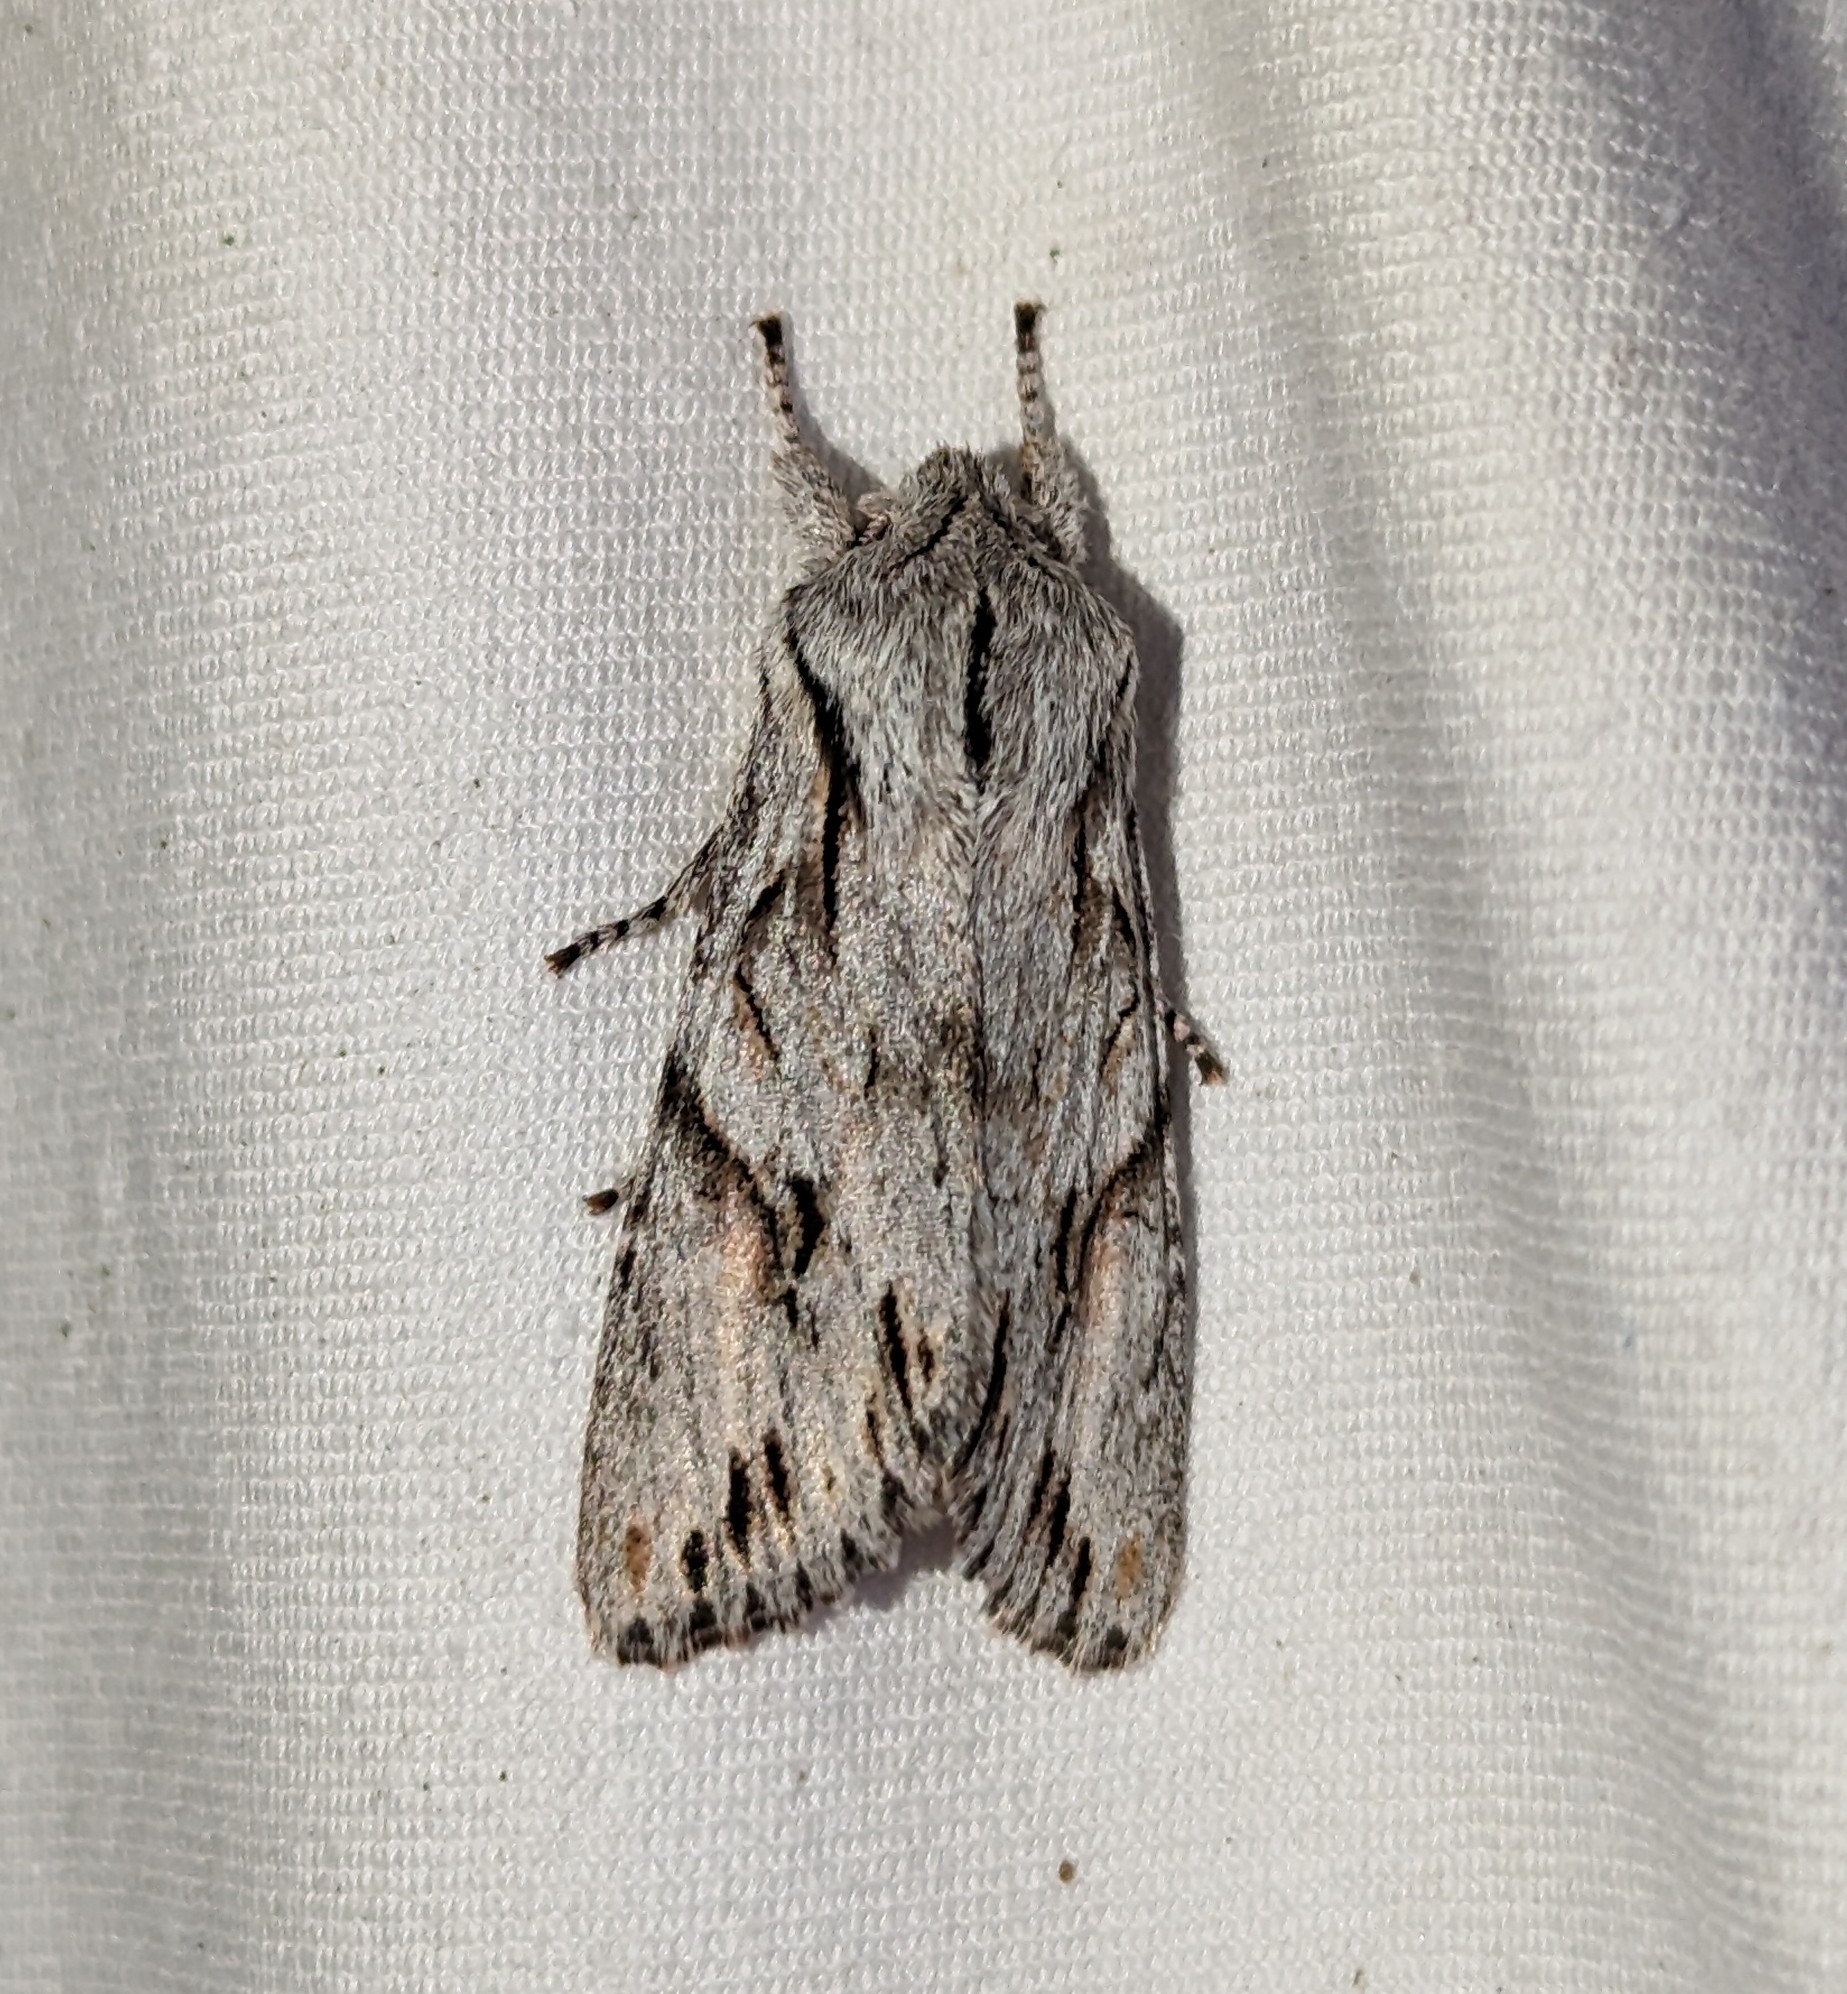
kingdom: Animalia
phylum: Arthropoda
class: Insecta
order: Lepidoptera
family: Noctuidae
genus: Egira
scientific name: Egira crucialis
